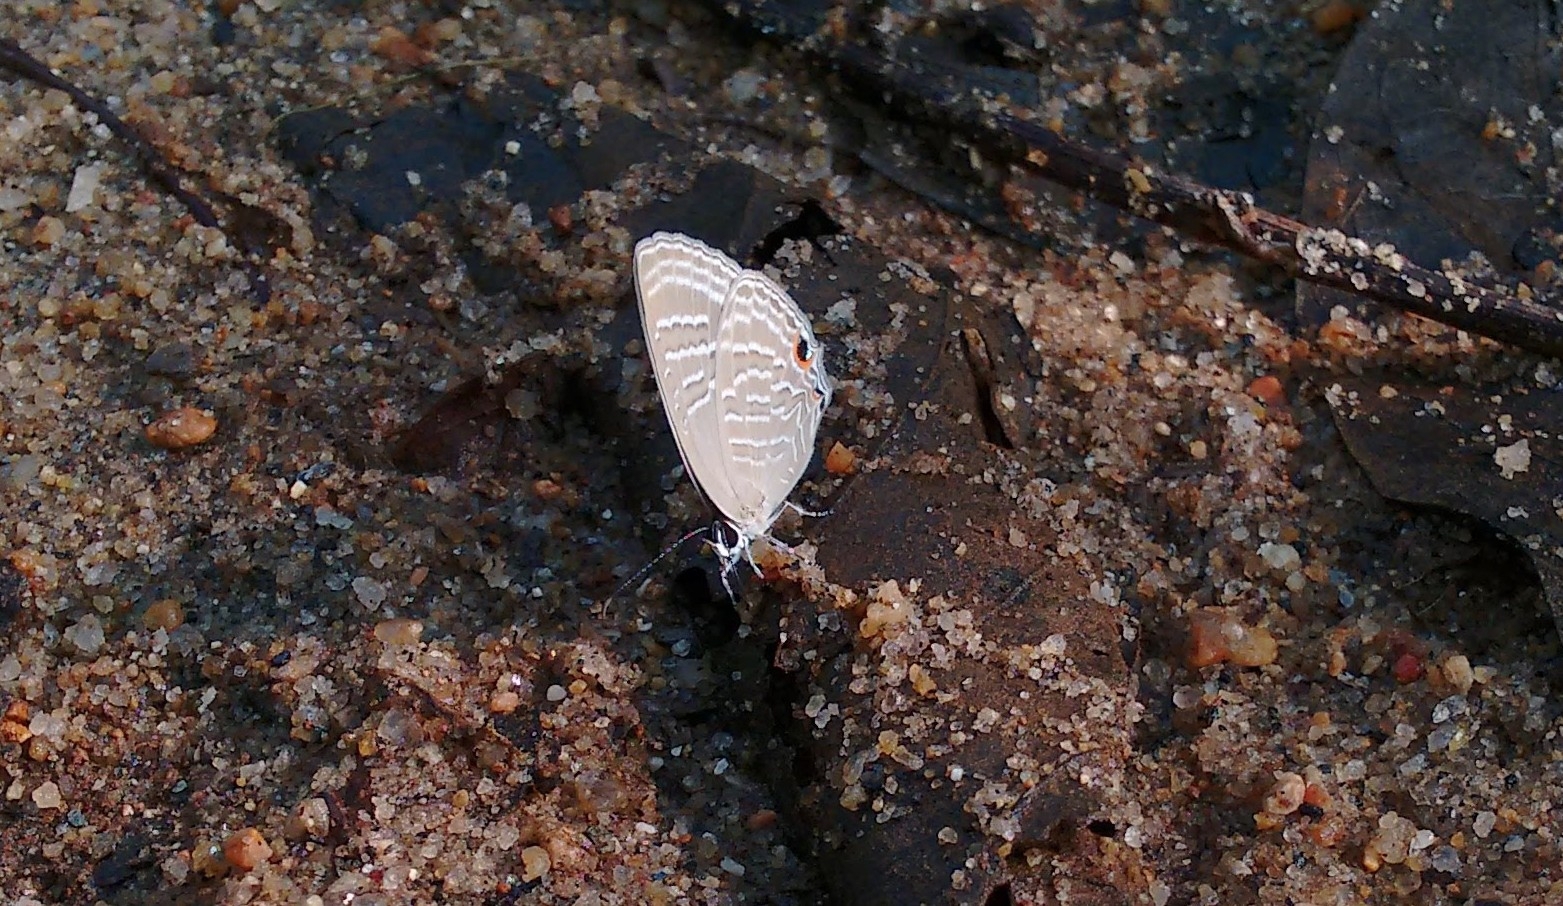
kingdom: Animalia
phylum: Arthropoda
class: Insecta
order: Lepidoptera
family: Lycaenidae
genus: Jamides
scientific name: Jamides celeno
